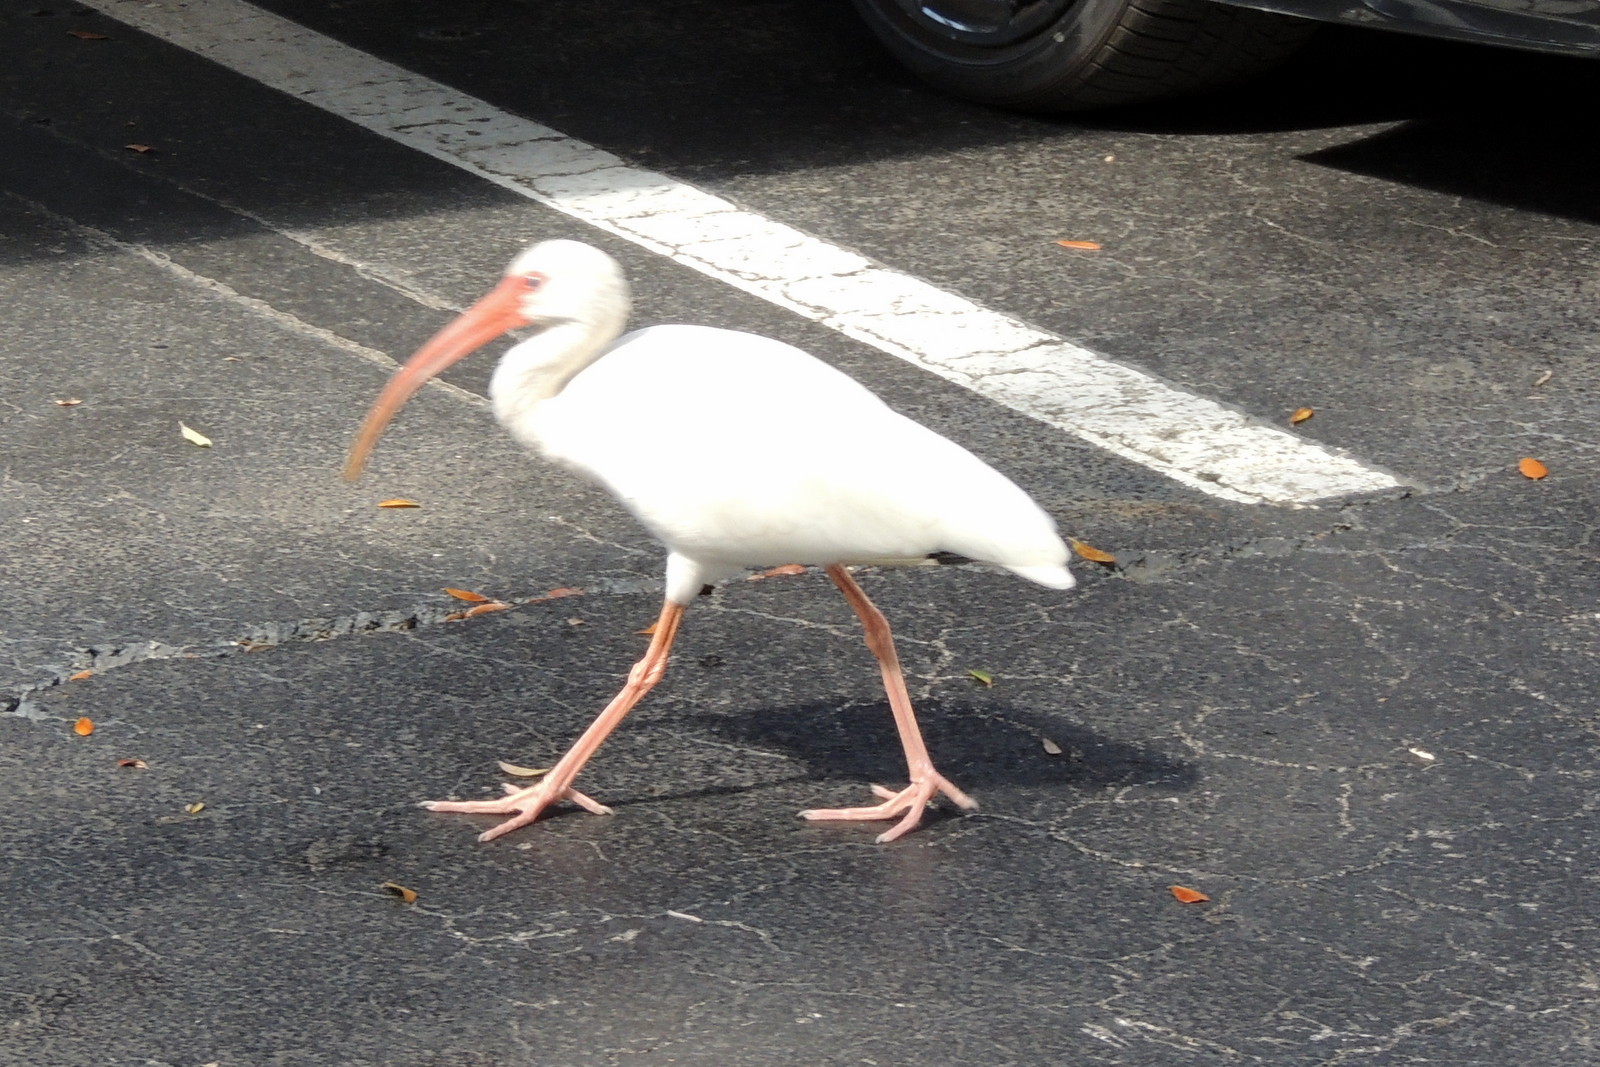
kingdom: Animalia
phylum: Chordata
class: Aves
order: Pelecaniformes
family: Threskiornithidae
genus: Eudocimus
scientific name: Eudocimus albus
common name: White ibis
